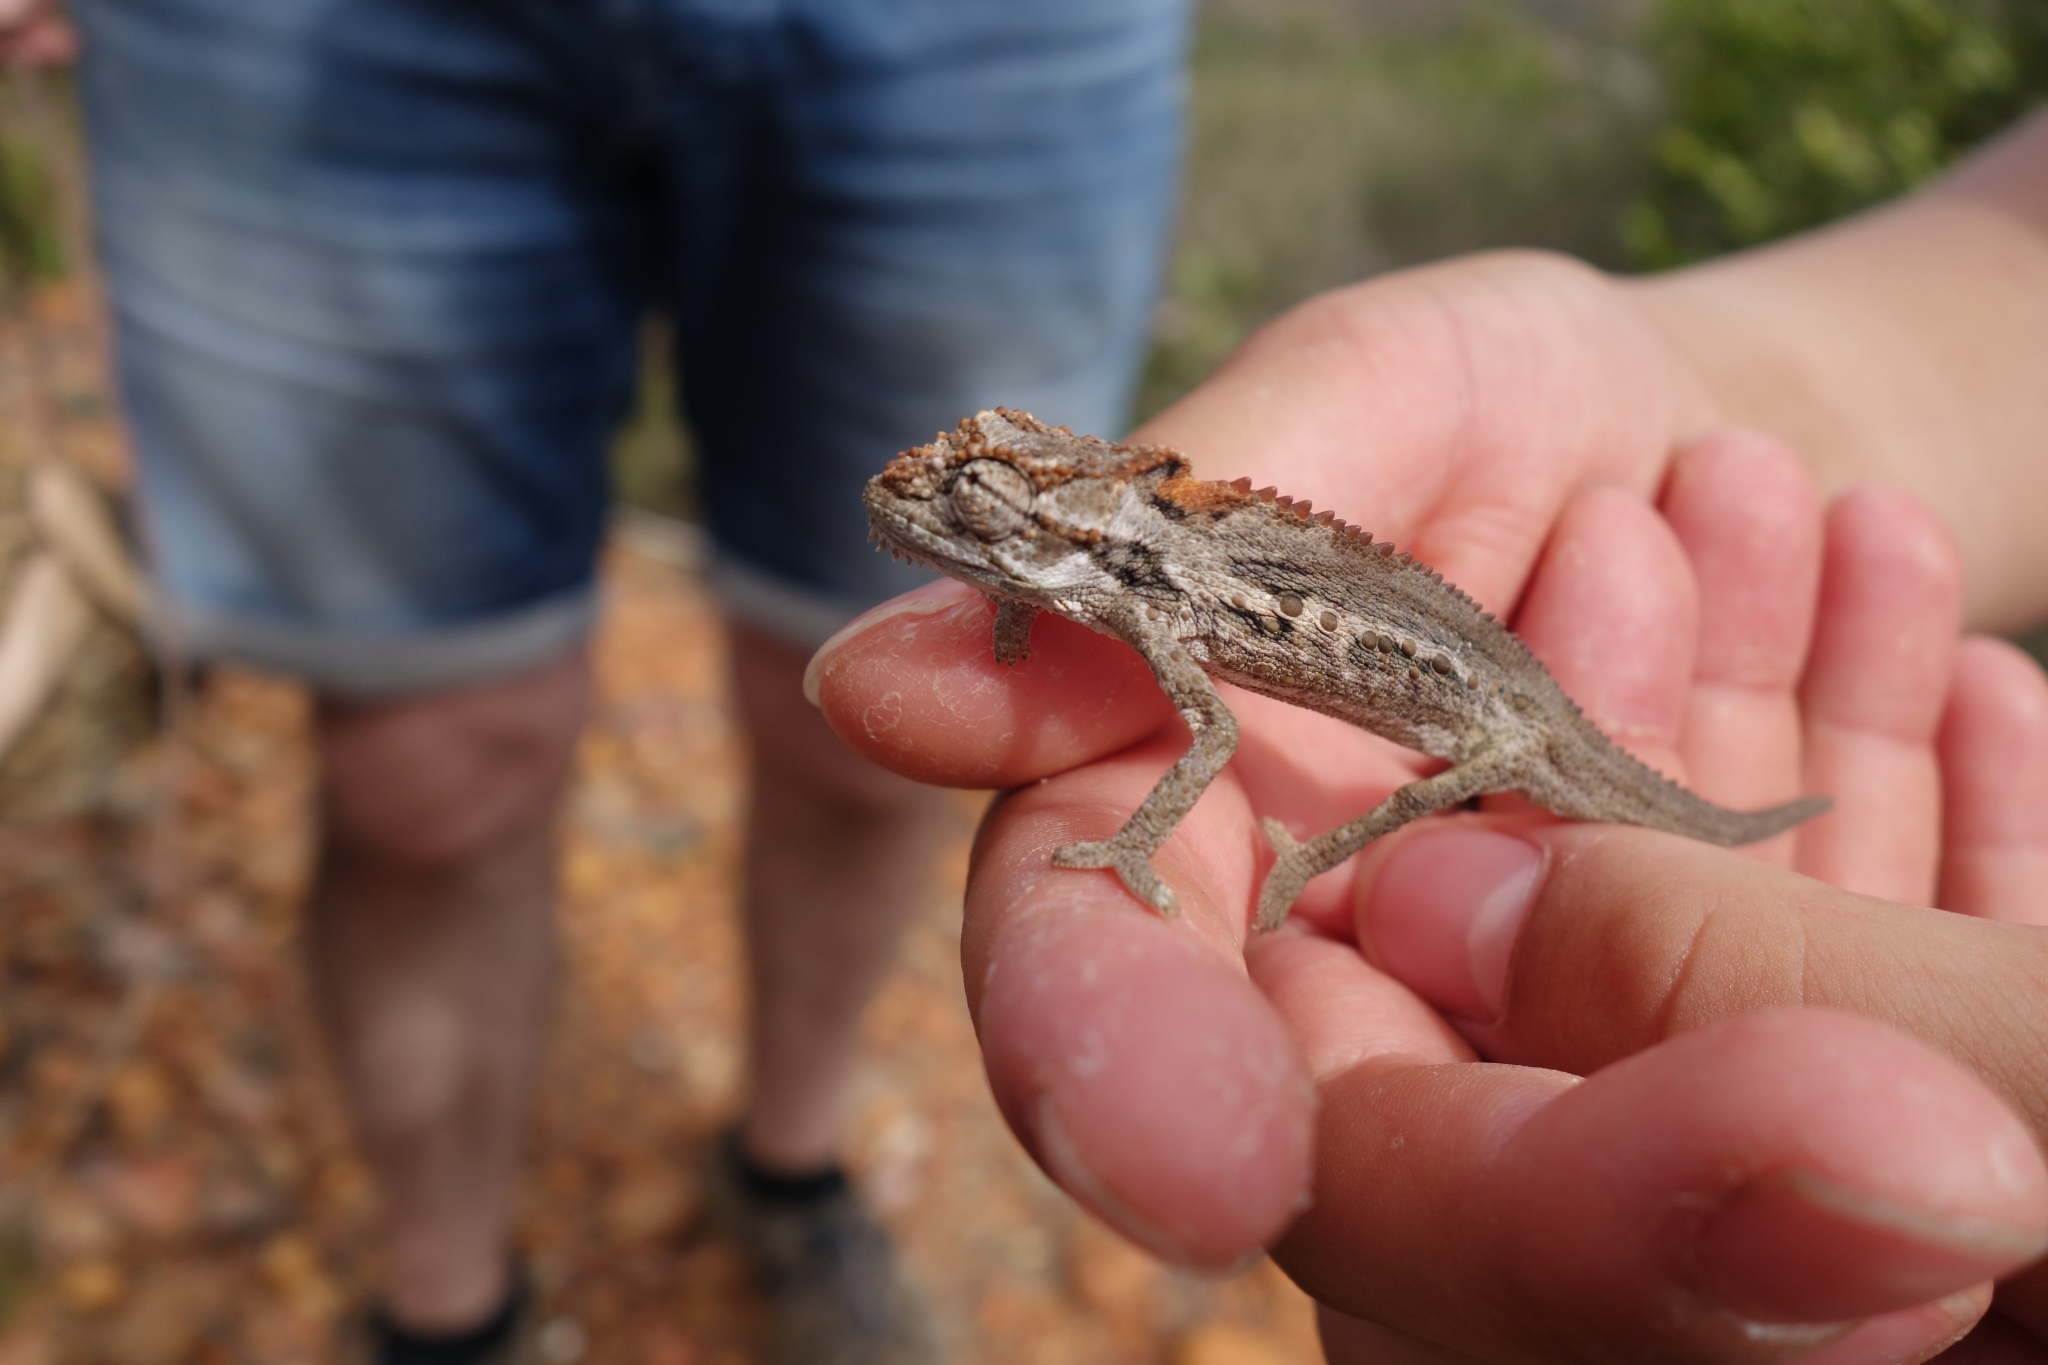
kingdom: Animalia
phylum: Chordata
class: Squamata
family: Chamaeleonidae
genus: Bradypodion
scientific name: Bradypodion gutturale
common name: Little karoo dwarf chameleon
